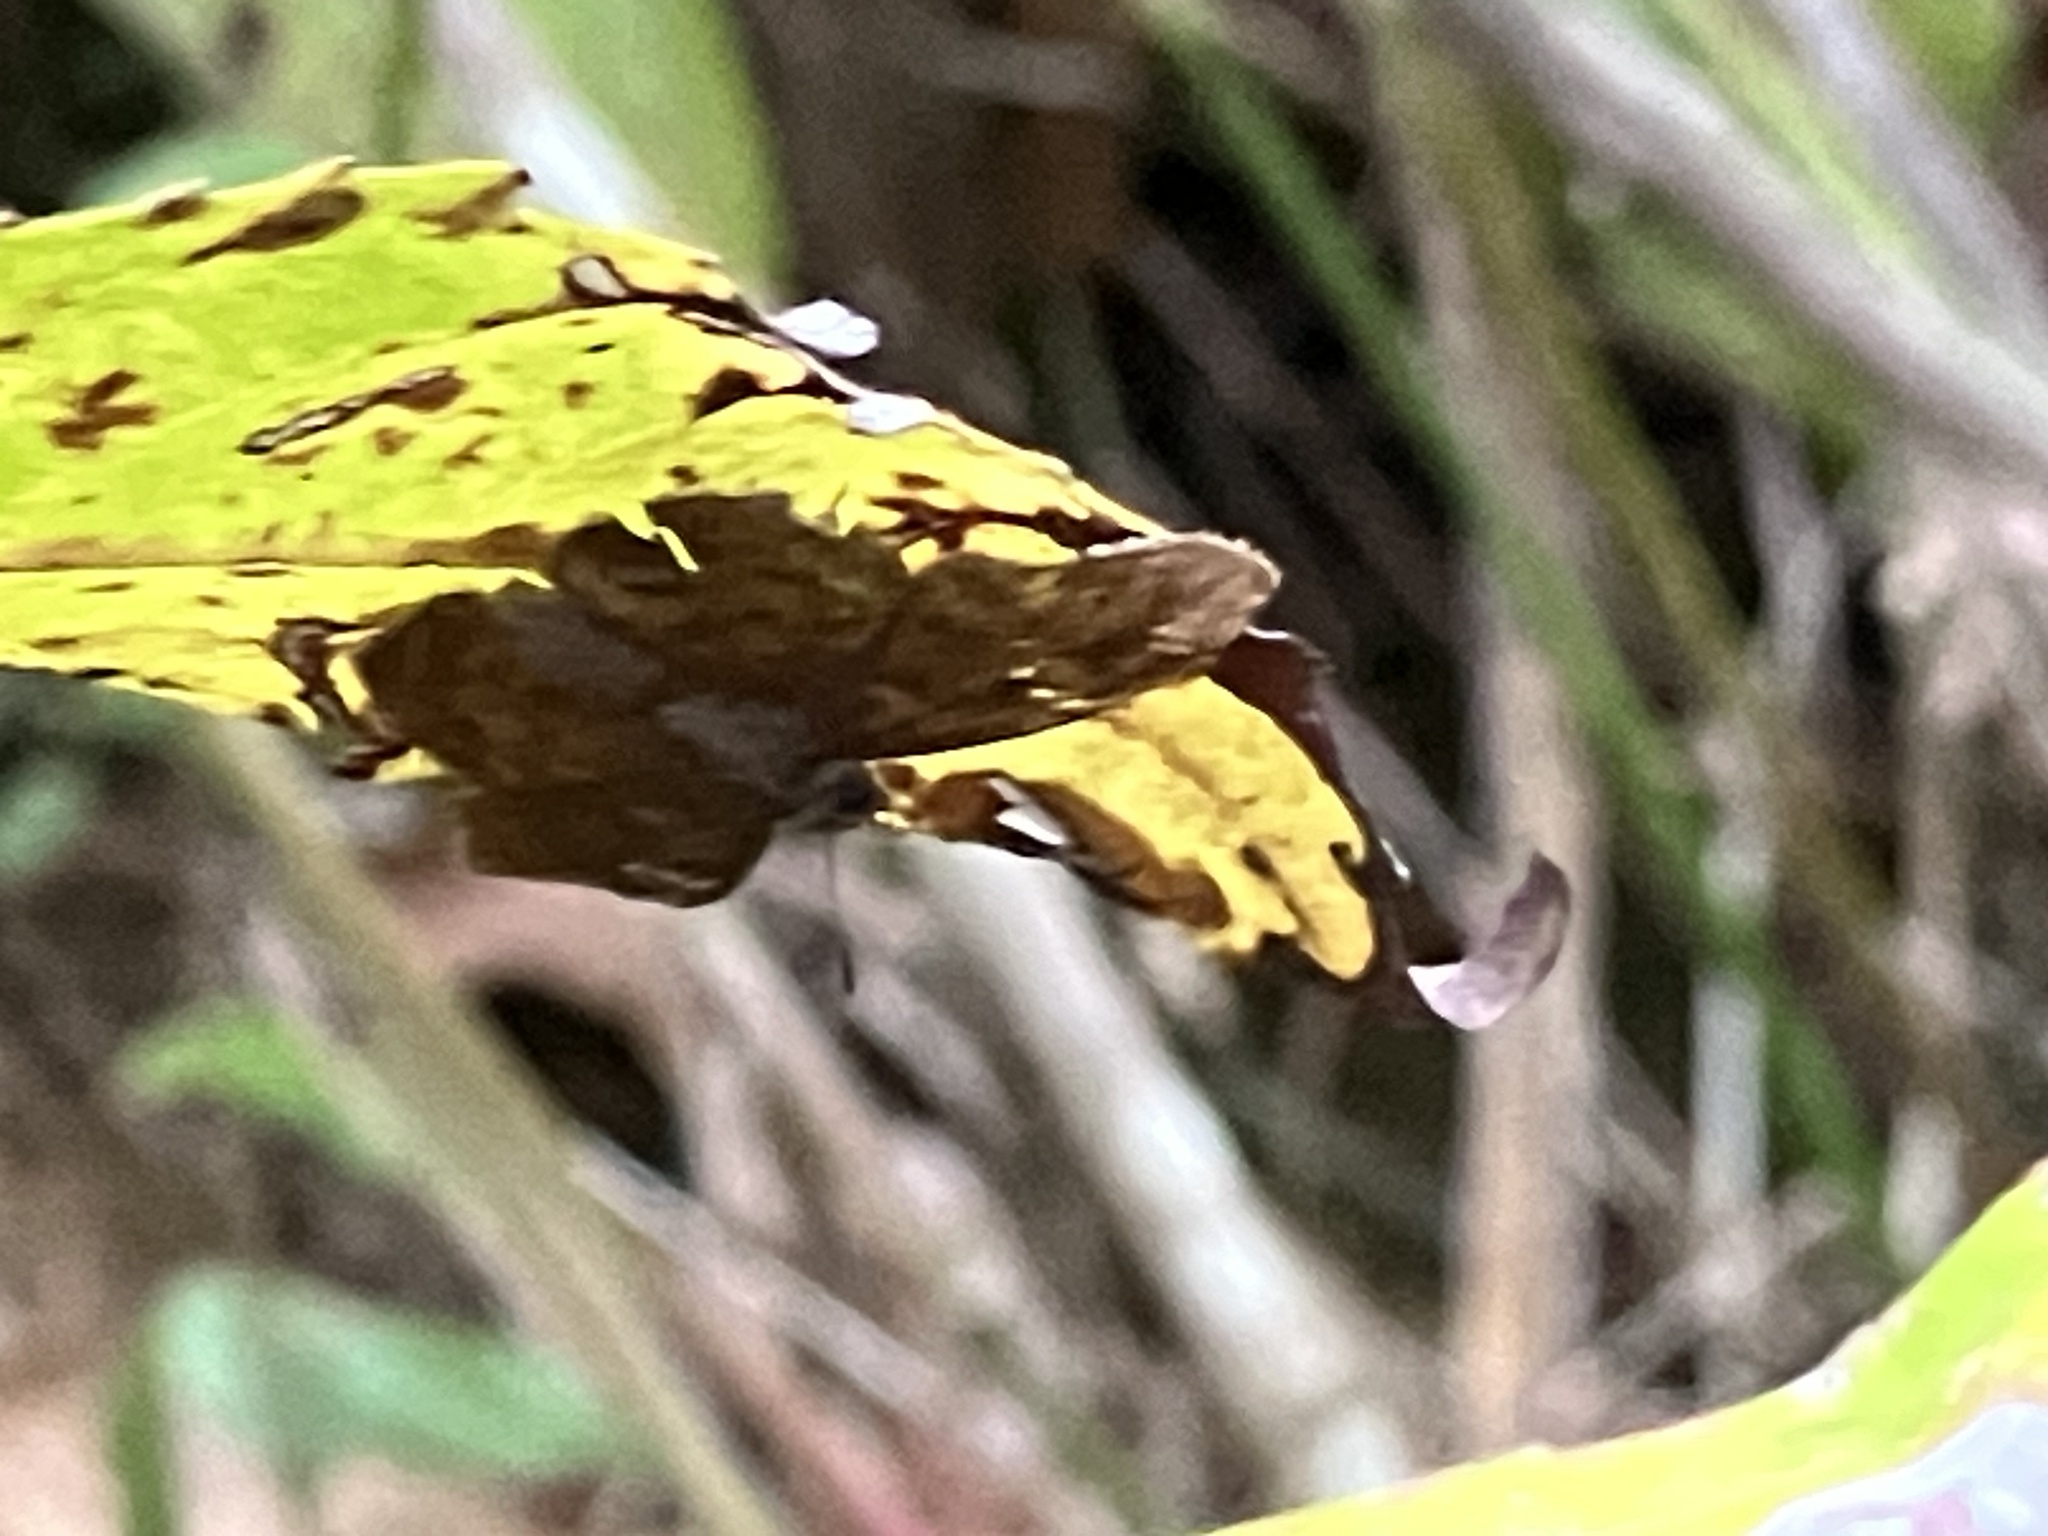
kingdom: Animalia
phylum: Arthropoda
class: Insecta
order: Lepidoptera
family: Hesperiidae
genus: Sarangesa
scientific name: Sarangesa dasahara
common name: Common small flat
